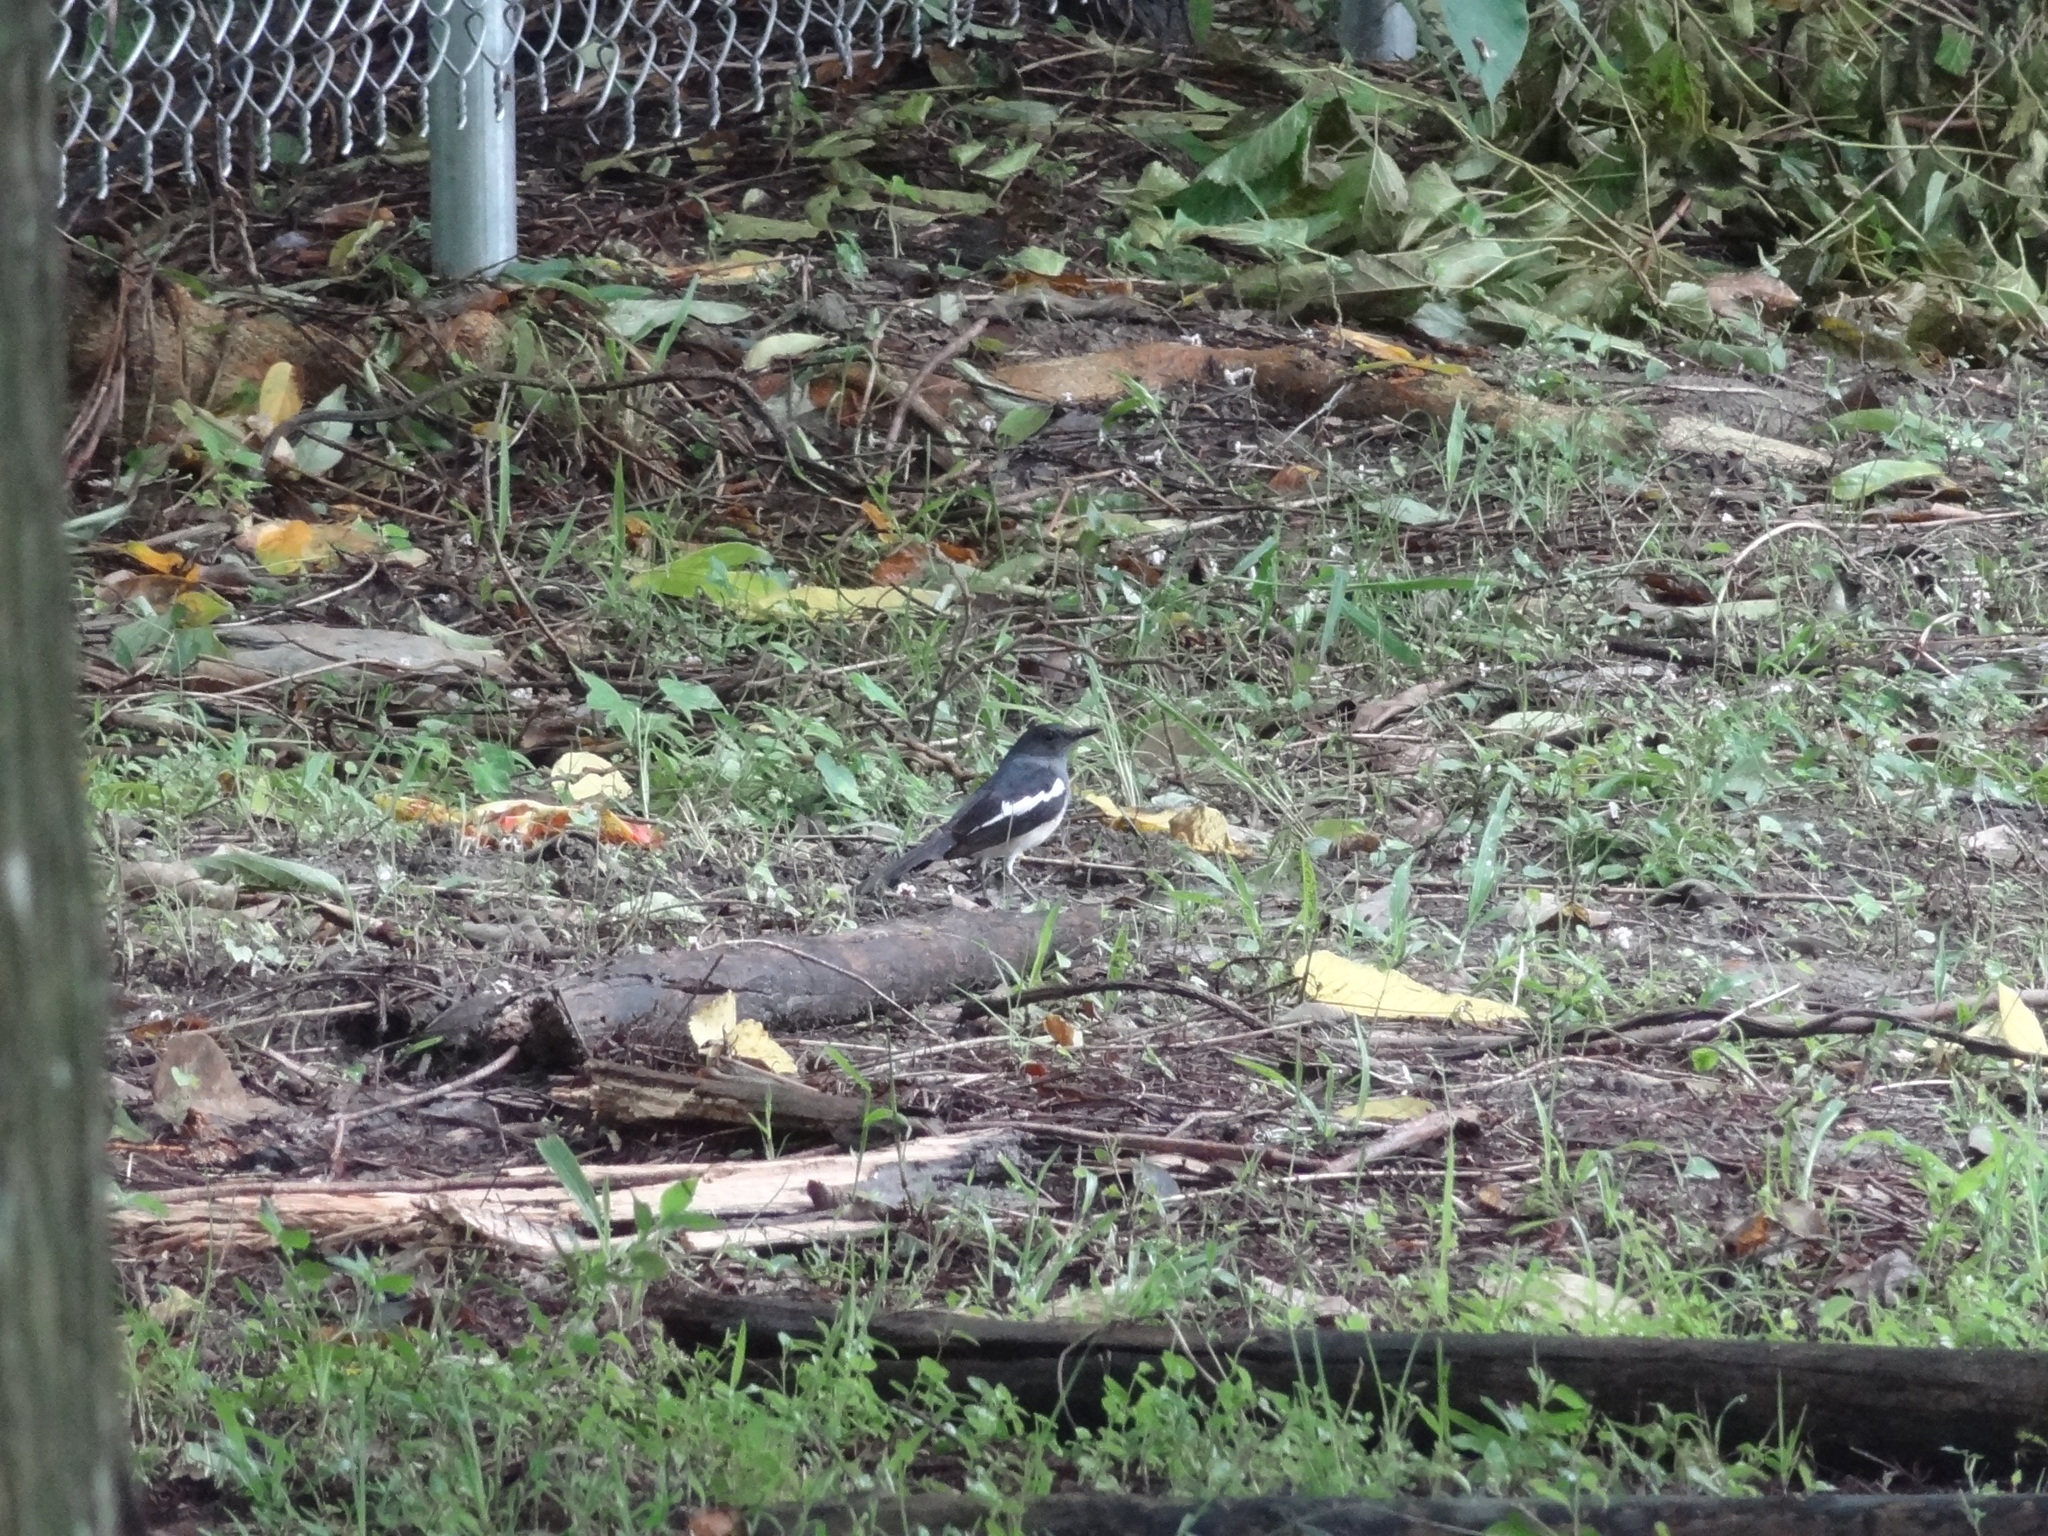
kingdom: Animalia
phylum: Chordata
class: Aves
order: Passeriformes
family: Muscicapidae
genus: Copsychus
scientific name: Copsychus saularis
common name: Oriental magpie-robin
